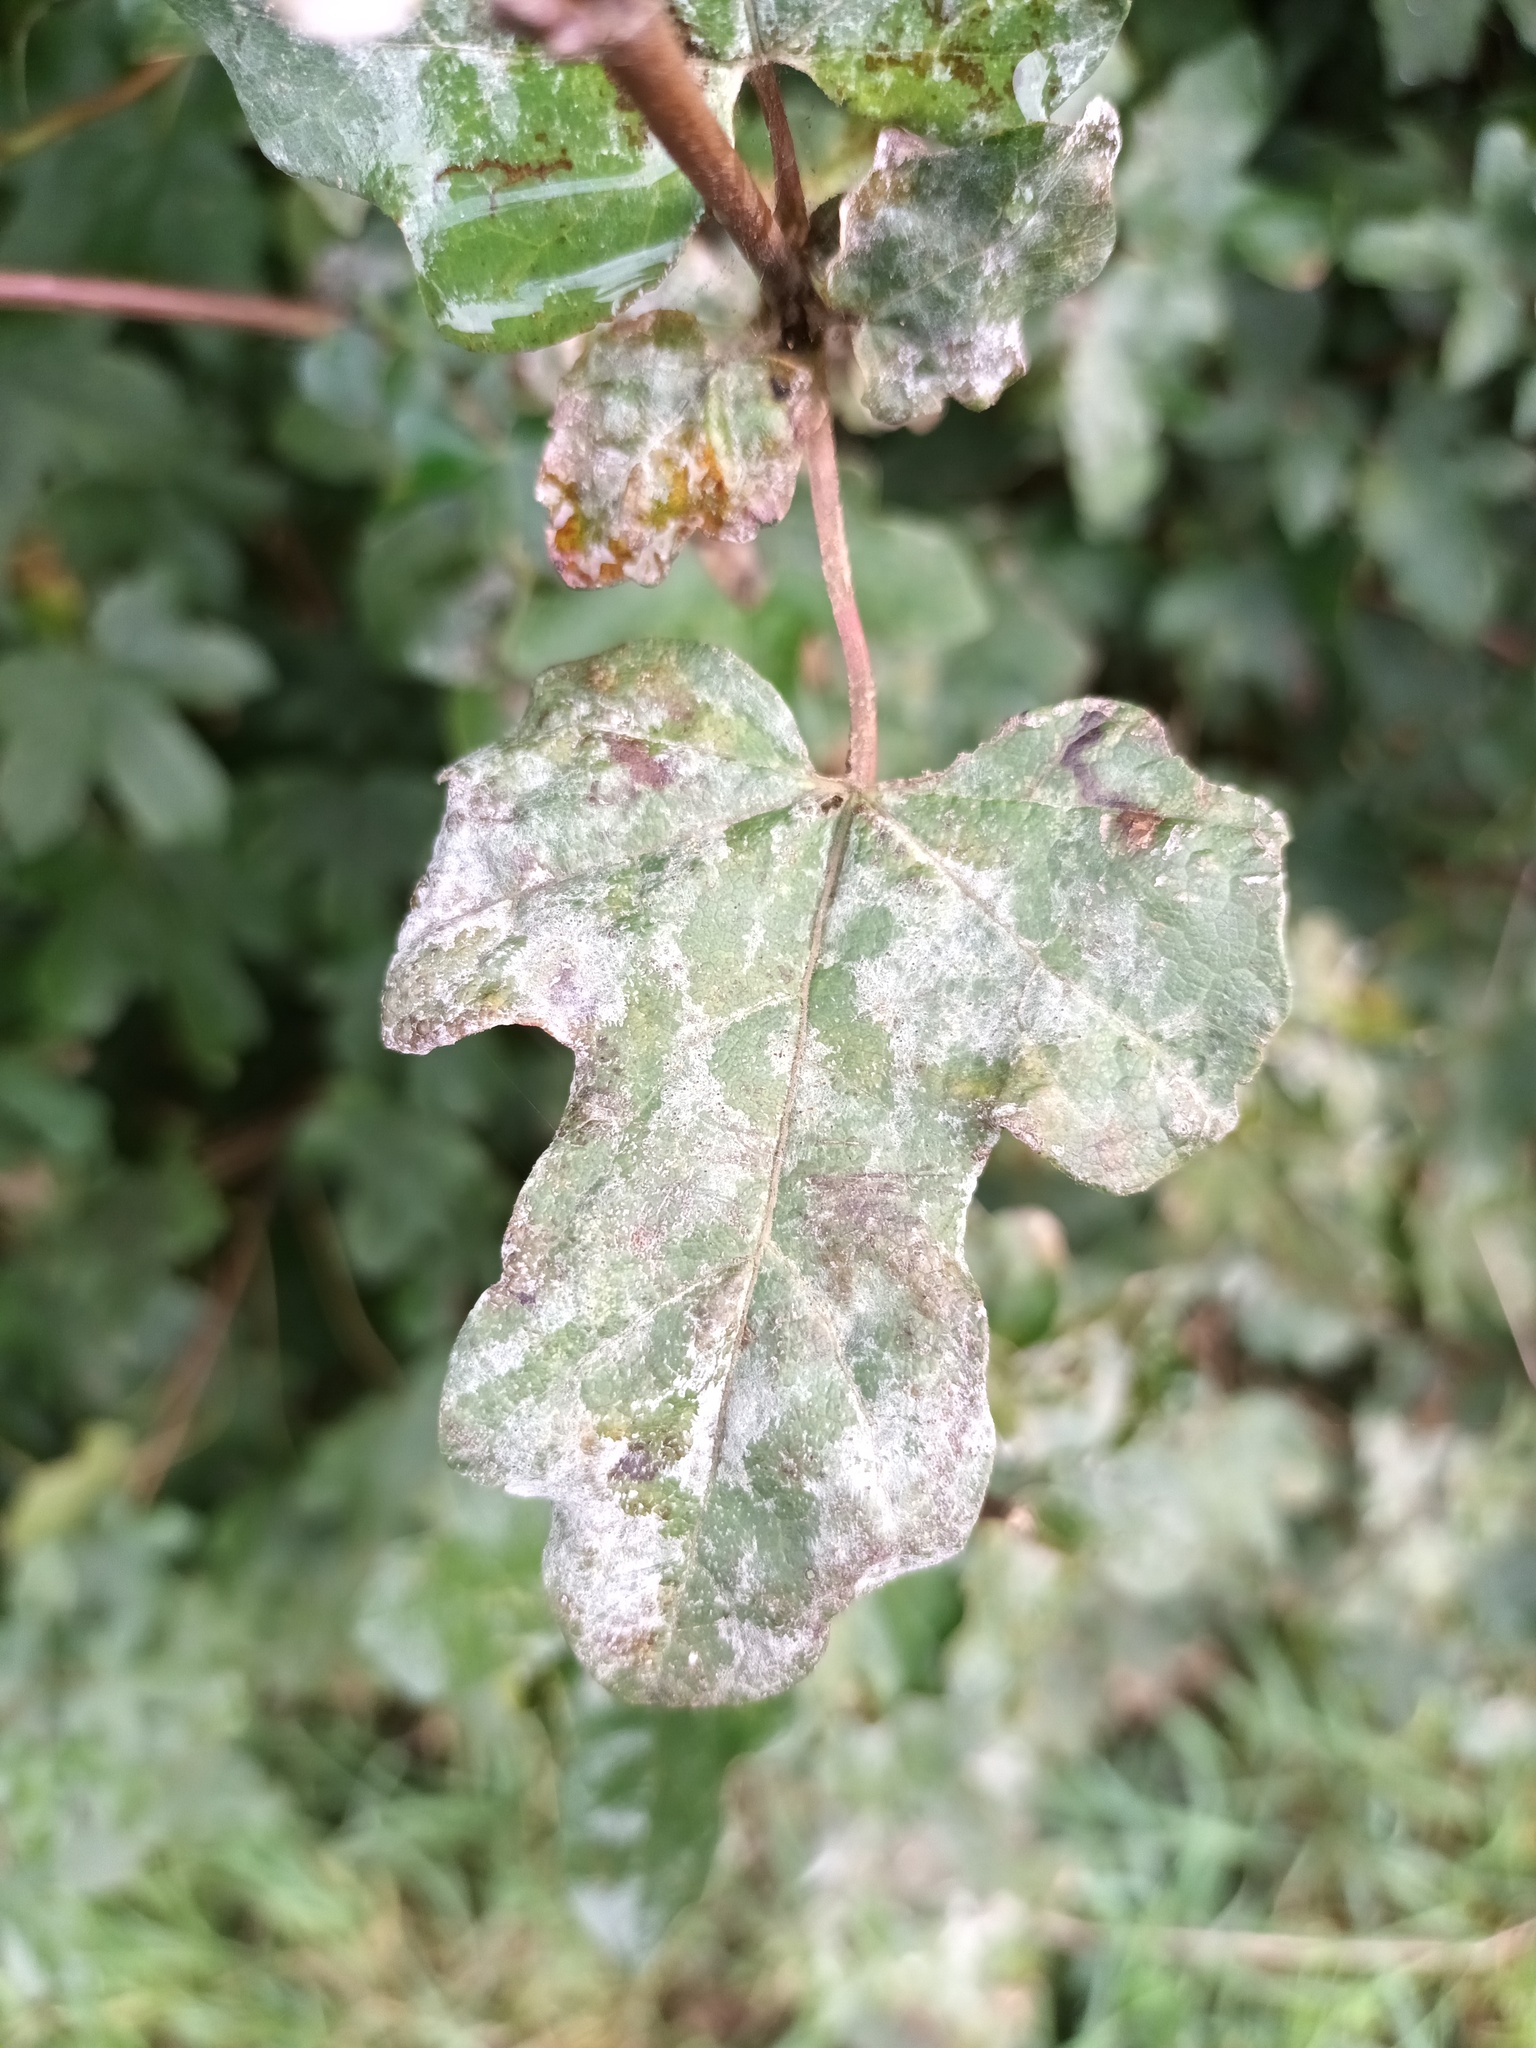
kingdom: Fungi
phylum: Ascomycota
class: Leotiomycetes
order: Helotiales
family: Erysiphaceae
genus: Sawadaea
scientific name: Sawadaea bicornis
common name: Maple mildew
